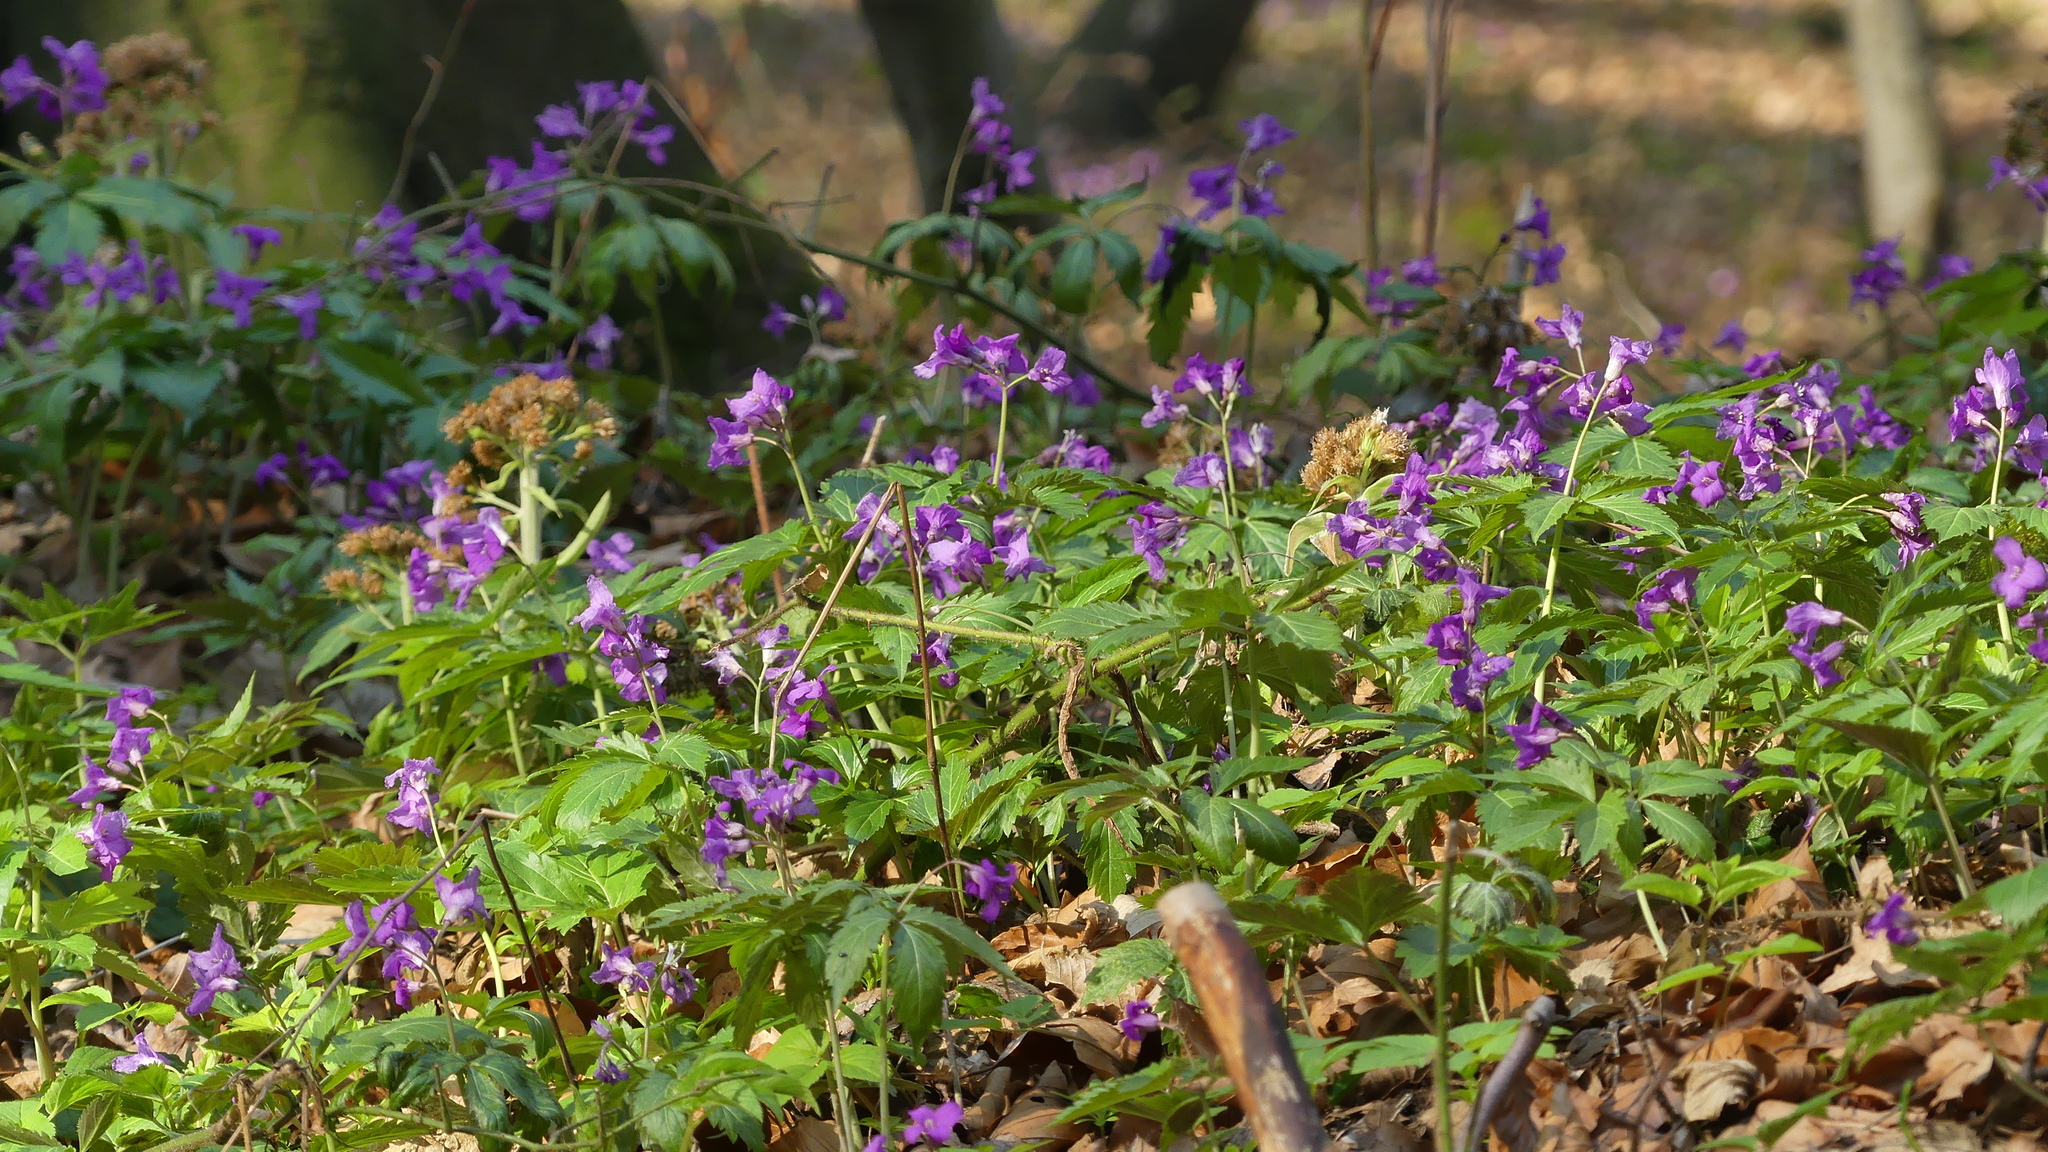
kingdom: Plantae
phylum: Tracheophyta
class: Magnoliopsida
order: Brassicales
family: Brassicaceae
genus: Cardamine
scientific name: Cardamine glanduligera
